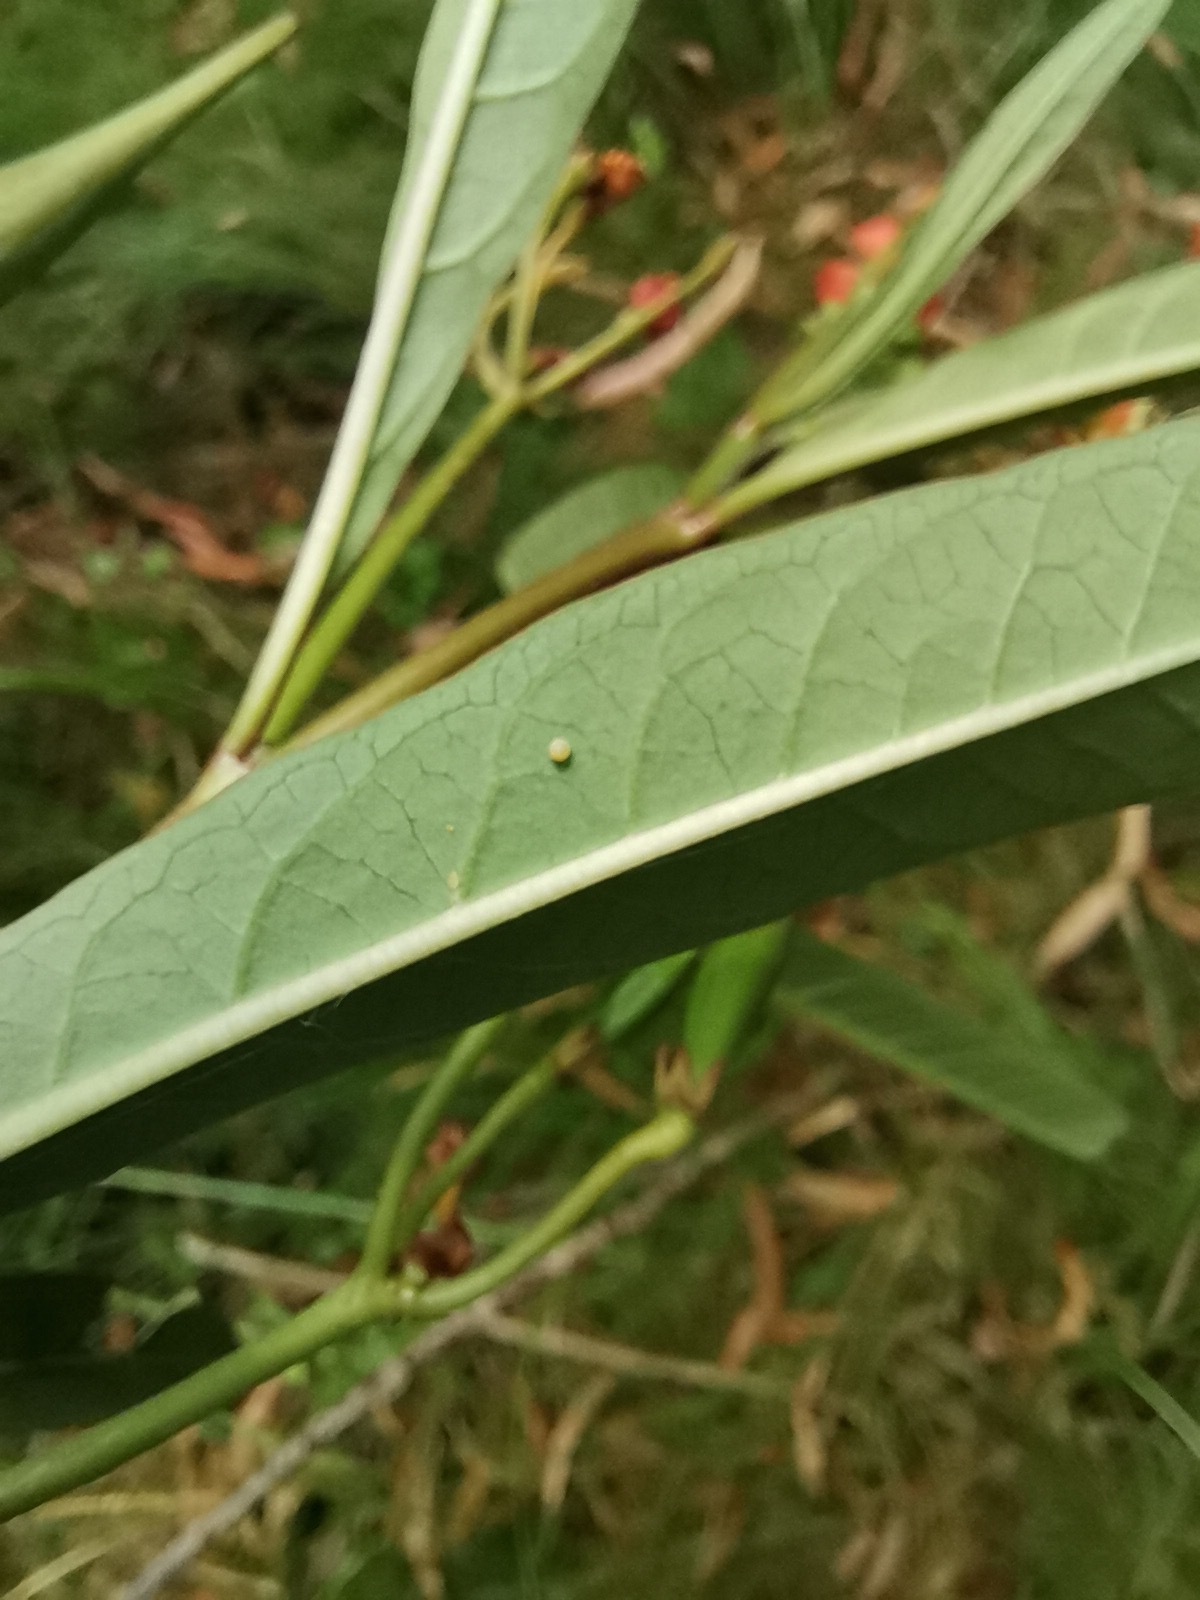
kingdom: Animalia
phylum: Arthropoda
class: Insecta
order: Lepidoptera
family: Nymphalidae
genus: Danaus
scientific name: Danaus plexippus
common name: Monarch
